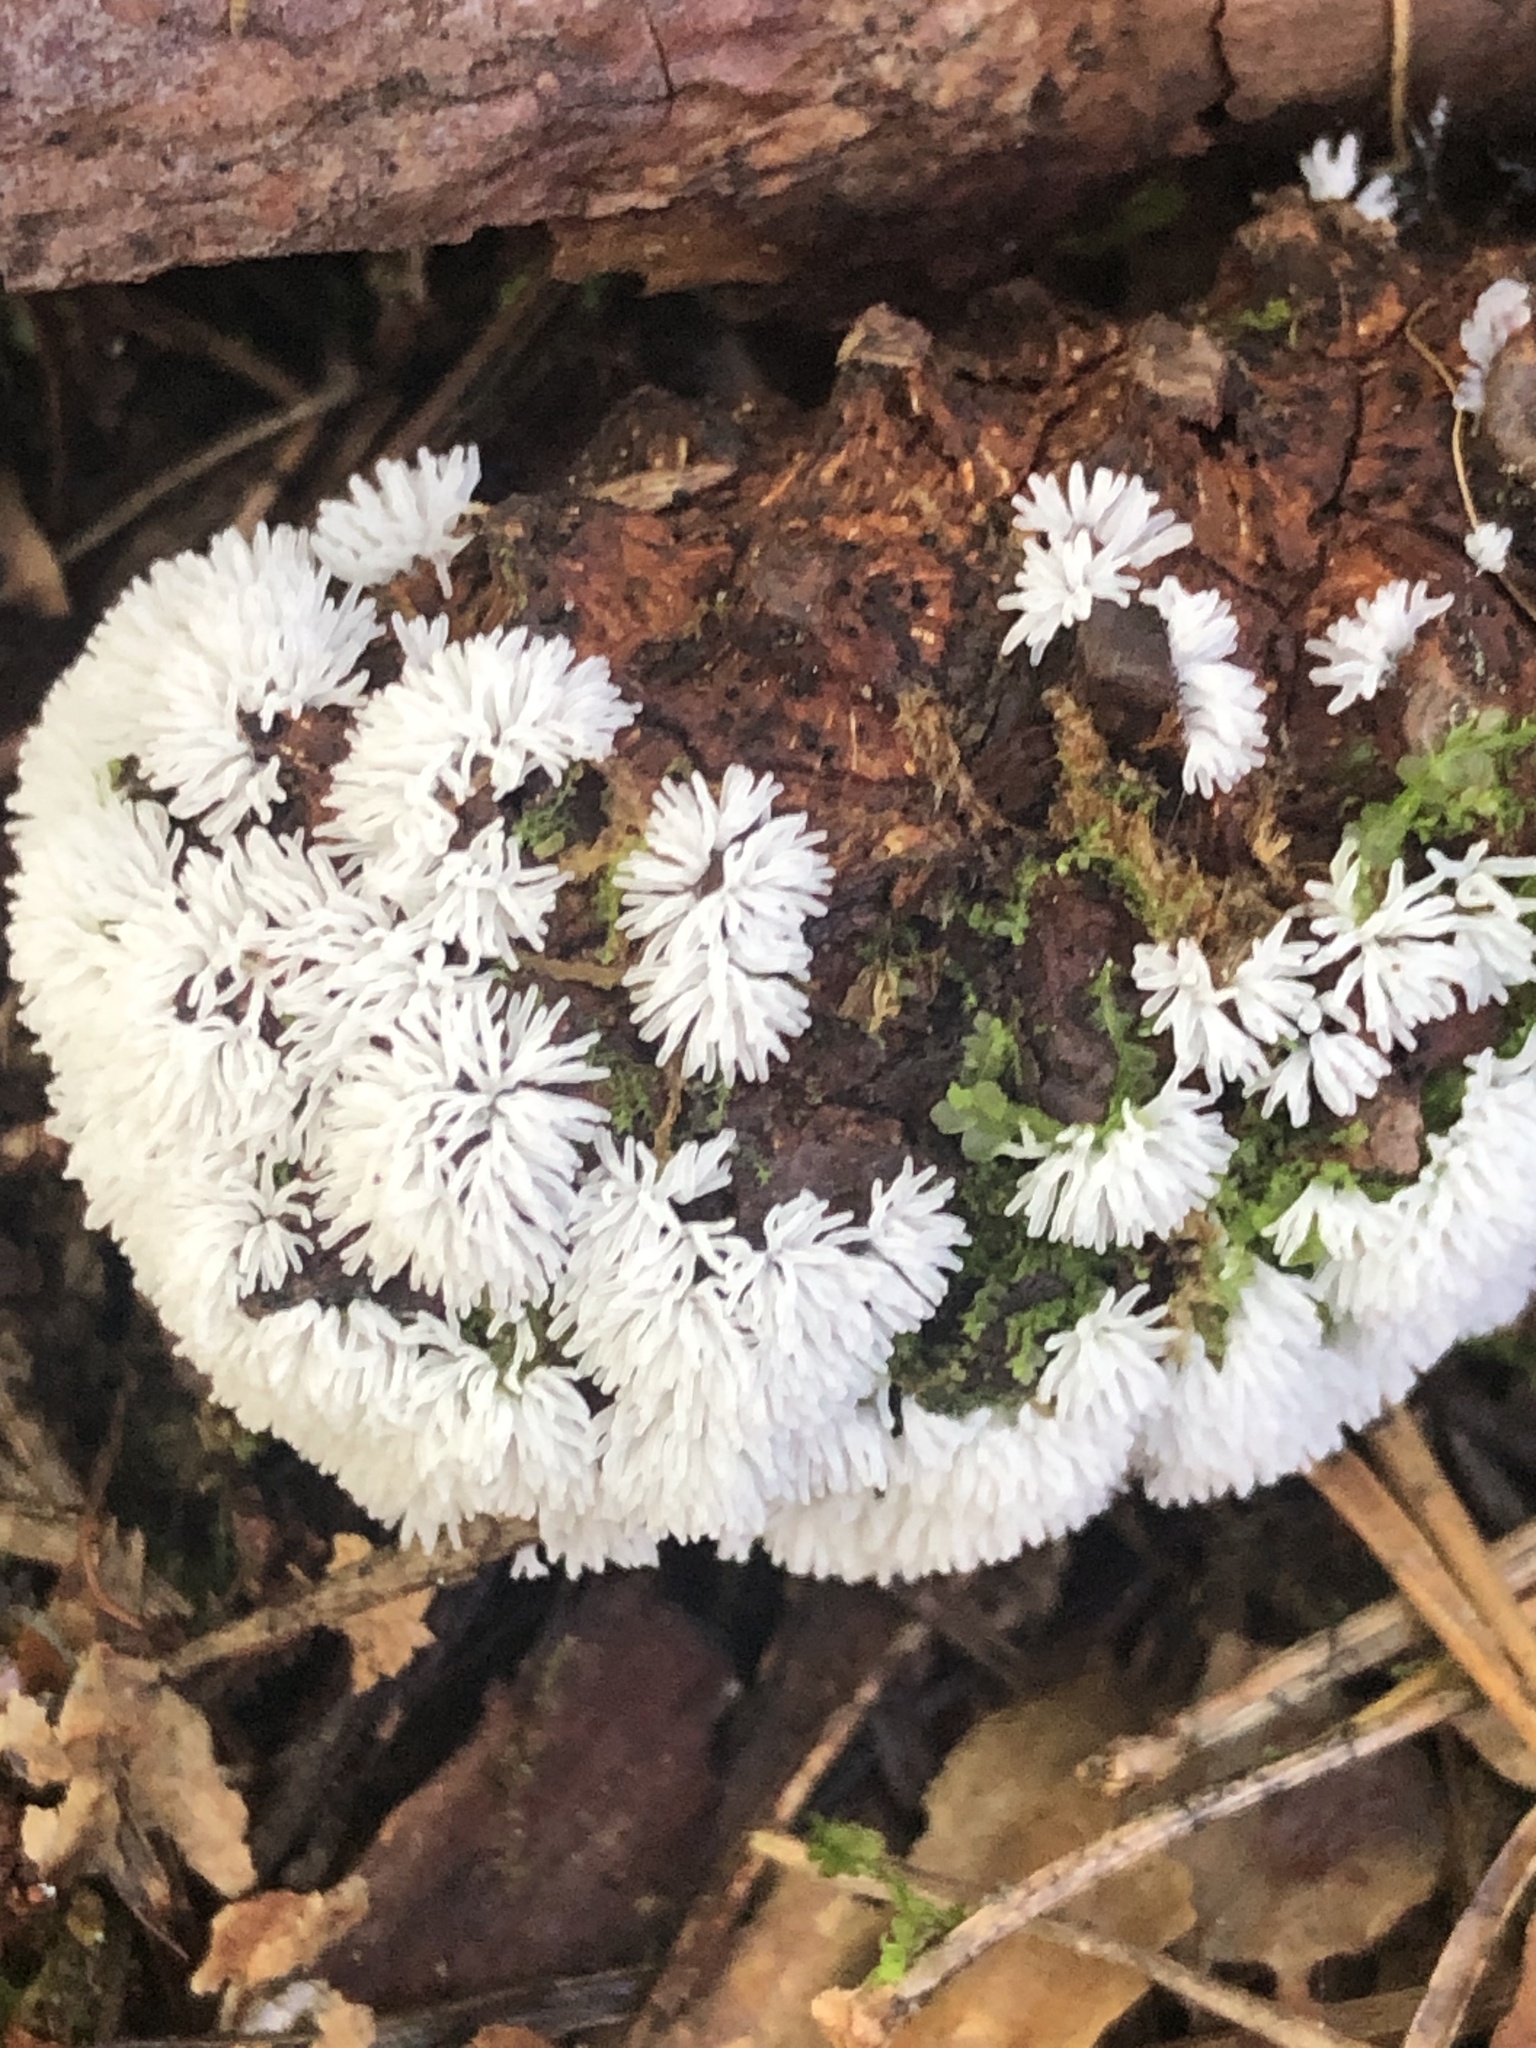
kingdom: Protozoa
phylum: Mycetozoa
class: Protosteliomycetes
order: Ceratiomyxales
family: Ceratiomyxaceae
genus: Ceratiomyxa
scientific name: Ceratiomyxa fruticulosa
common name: Honeycomb coral slime mold
